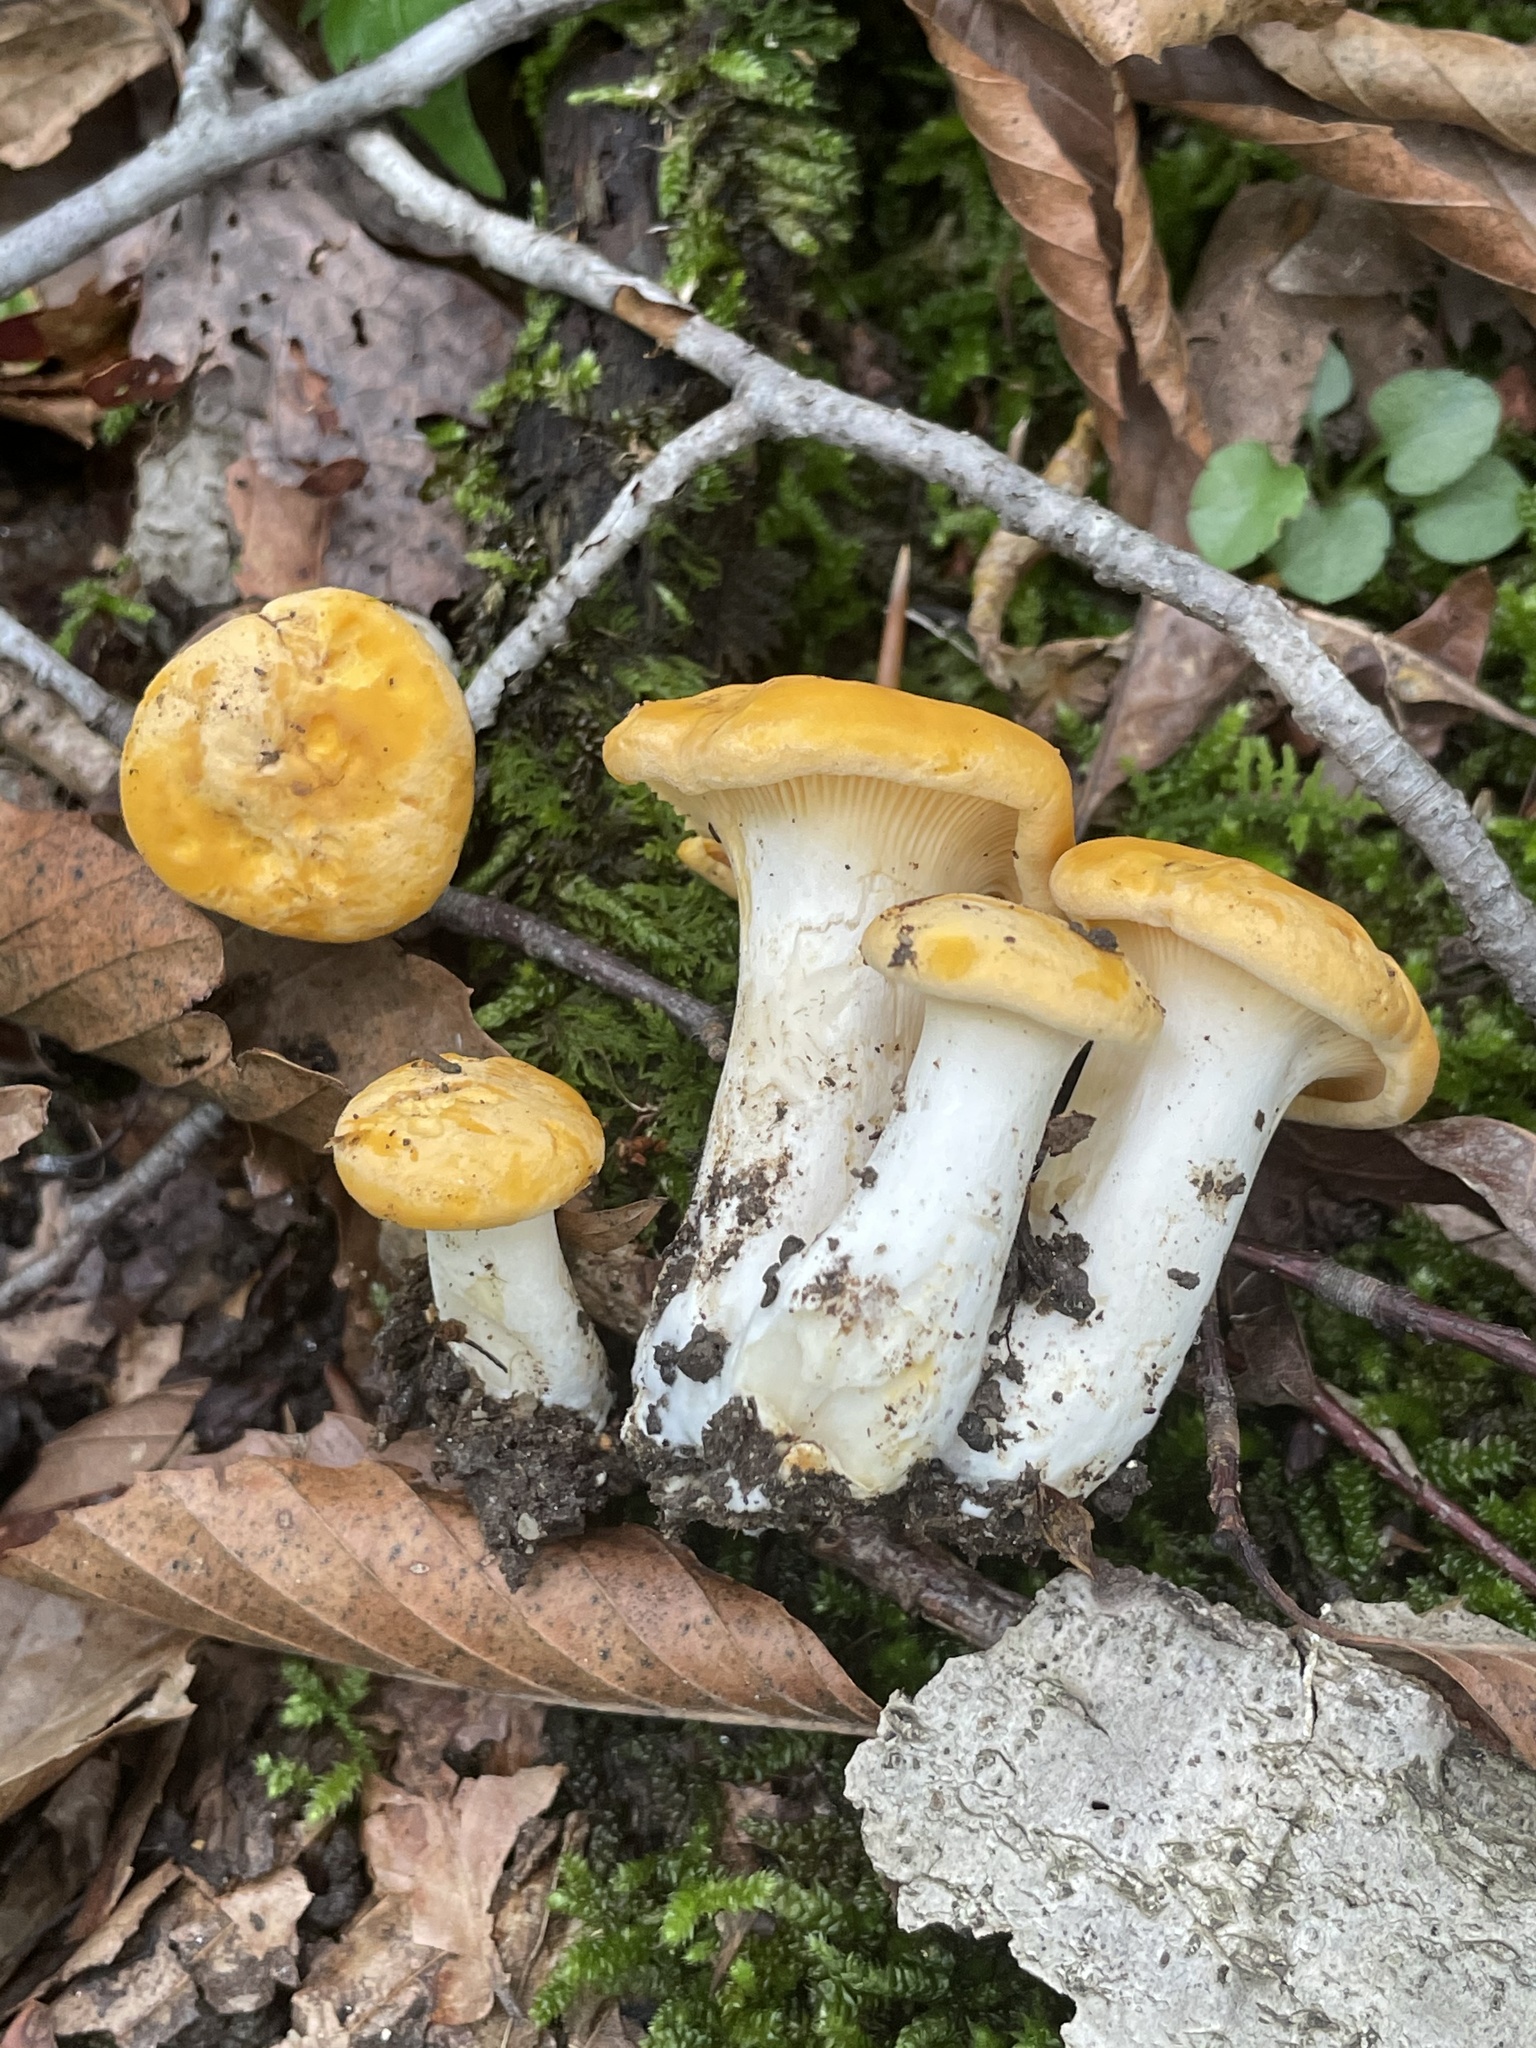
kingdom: Fungi
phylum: Basidiomycota
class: Agaricomycetes
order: Cantharellales
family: Hydnaceae
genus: Cantharellus
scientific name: Cantharellus phasmatis
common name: Ghost chanterelle
